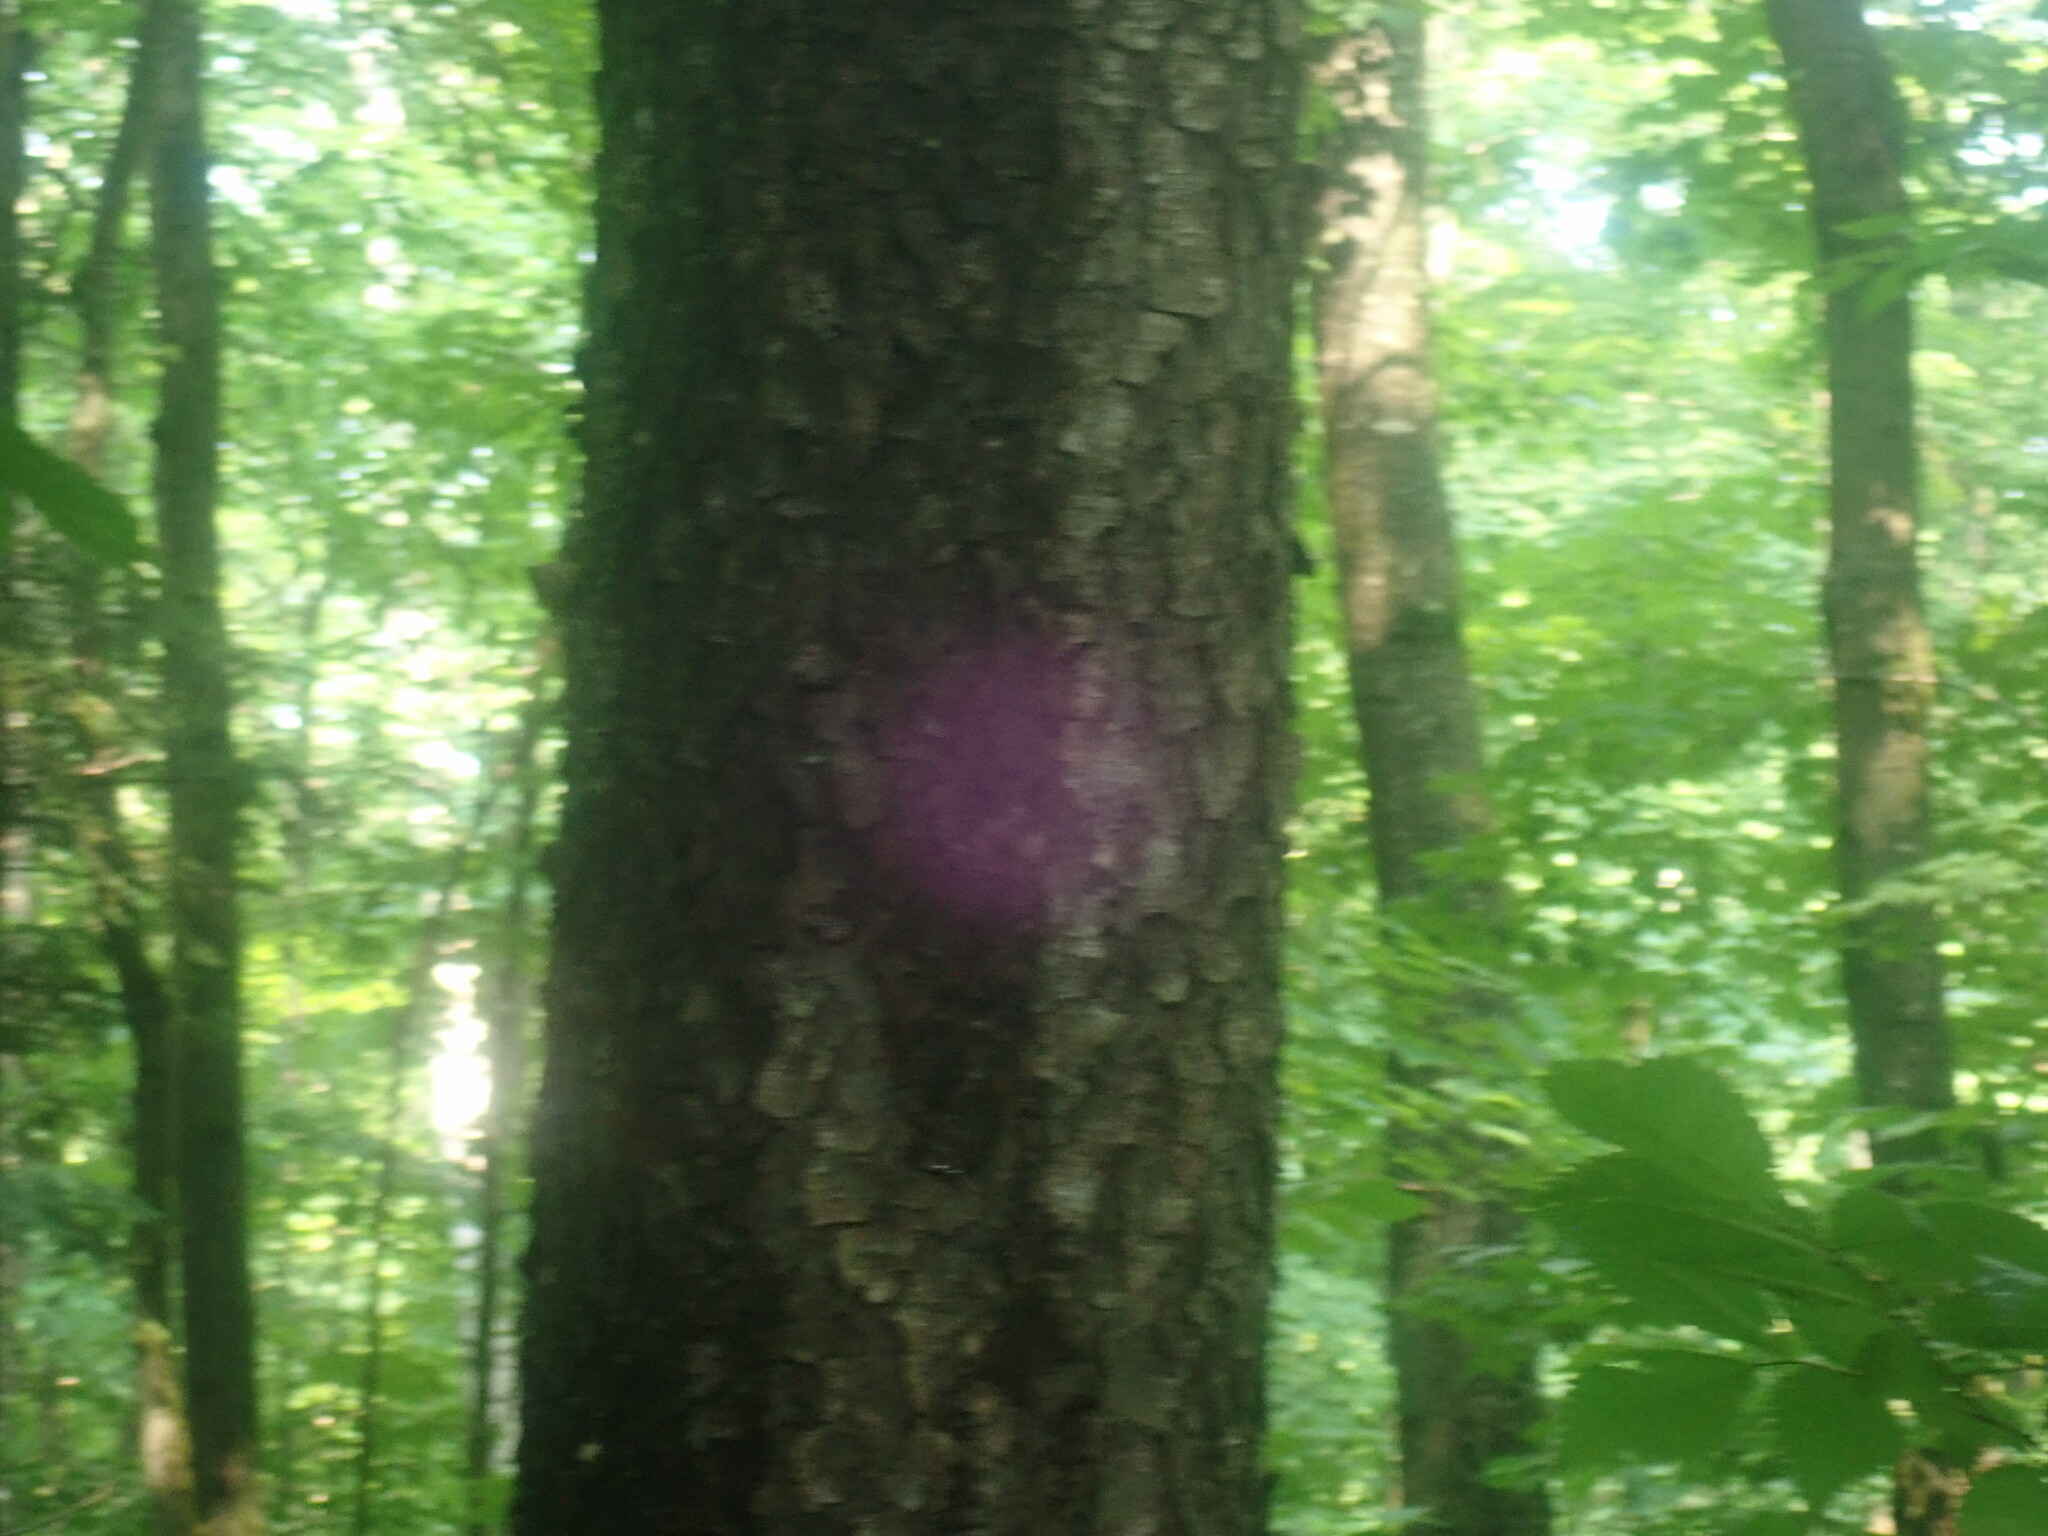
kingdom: Plantae
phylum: Tracheophyta
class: Magnoliopsida
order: Rosales
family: Rosaceae
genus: Prunus
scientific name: Prunus serotina
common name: Black cherry
